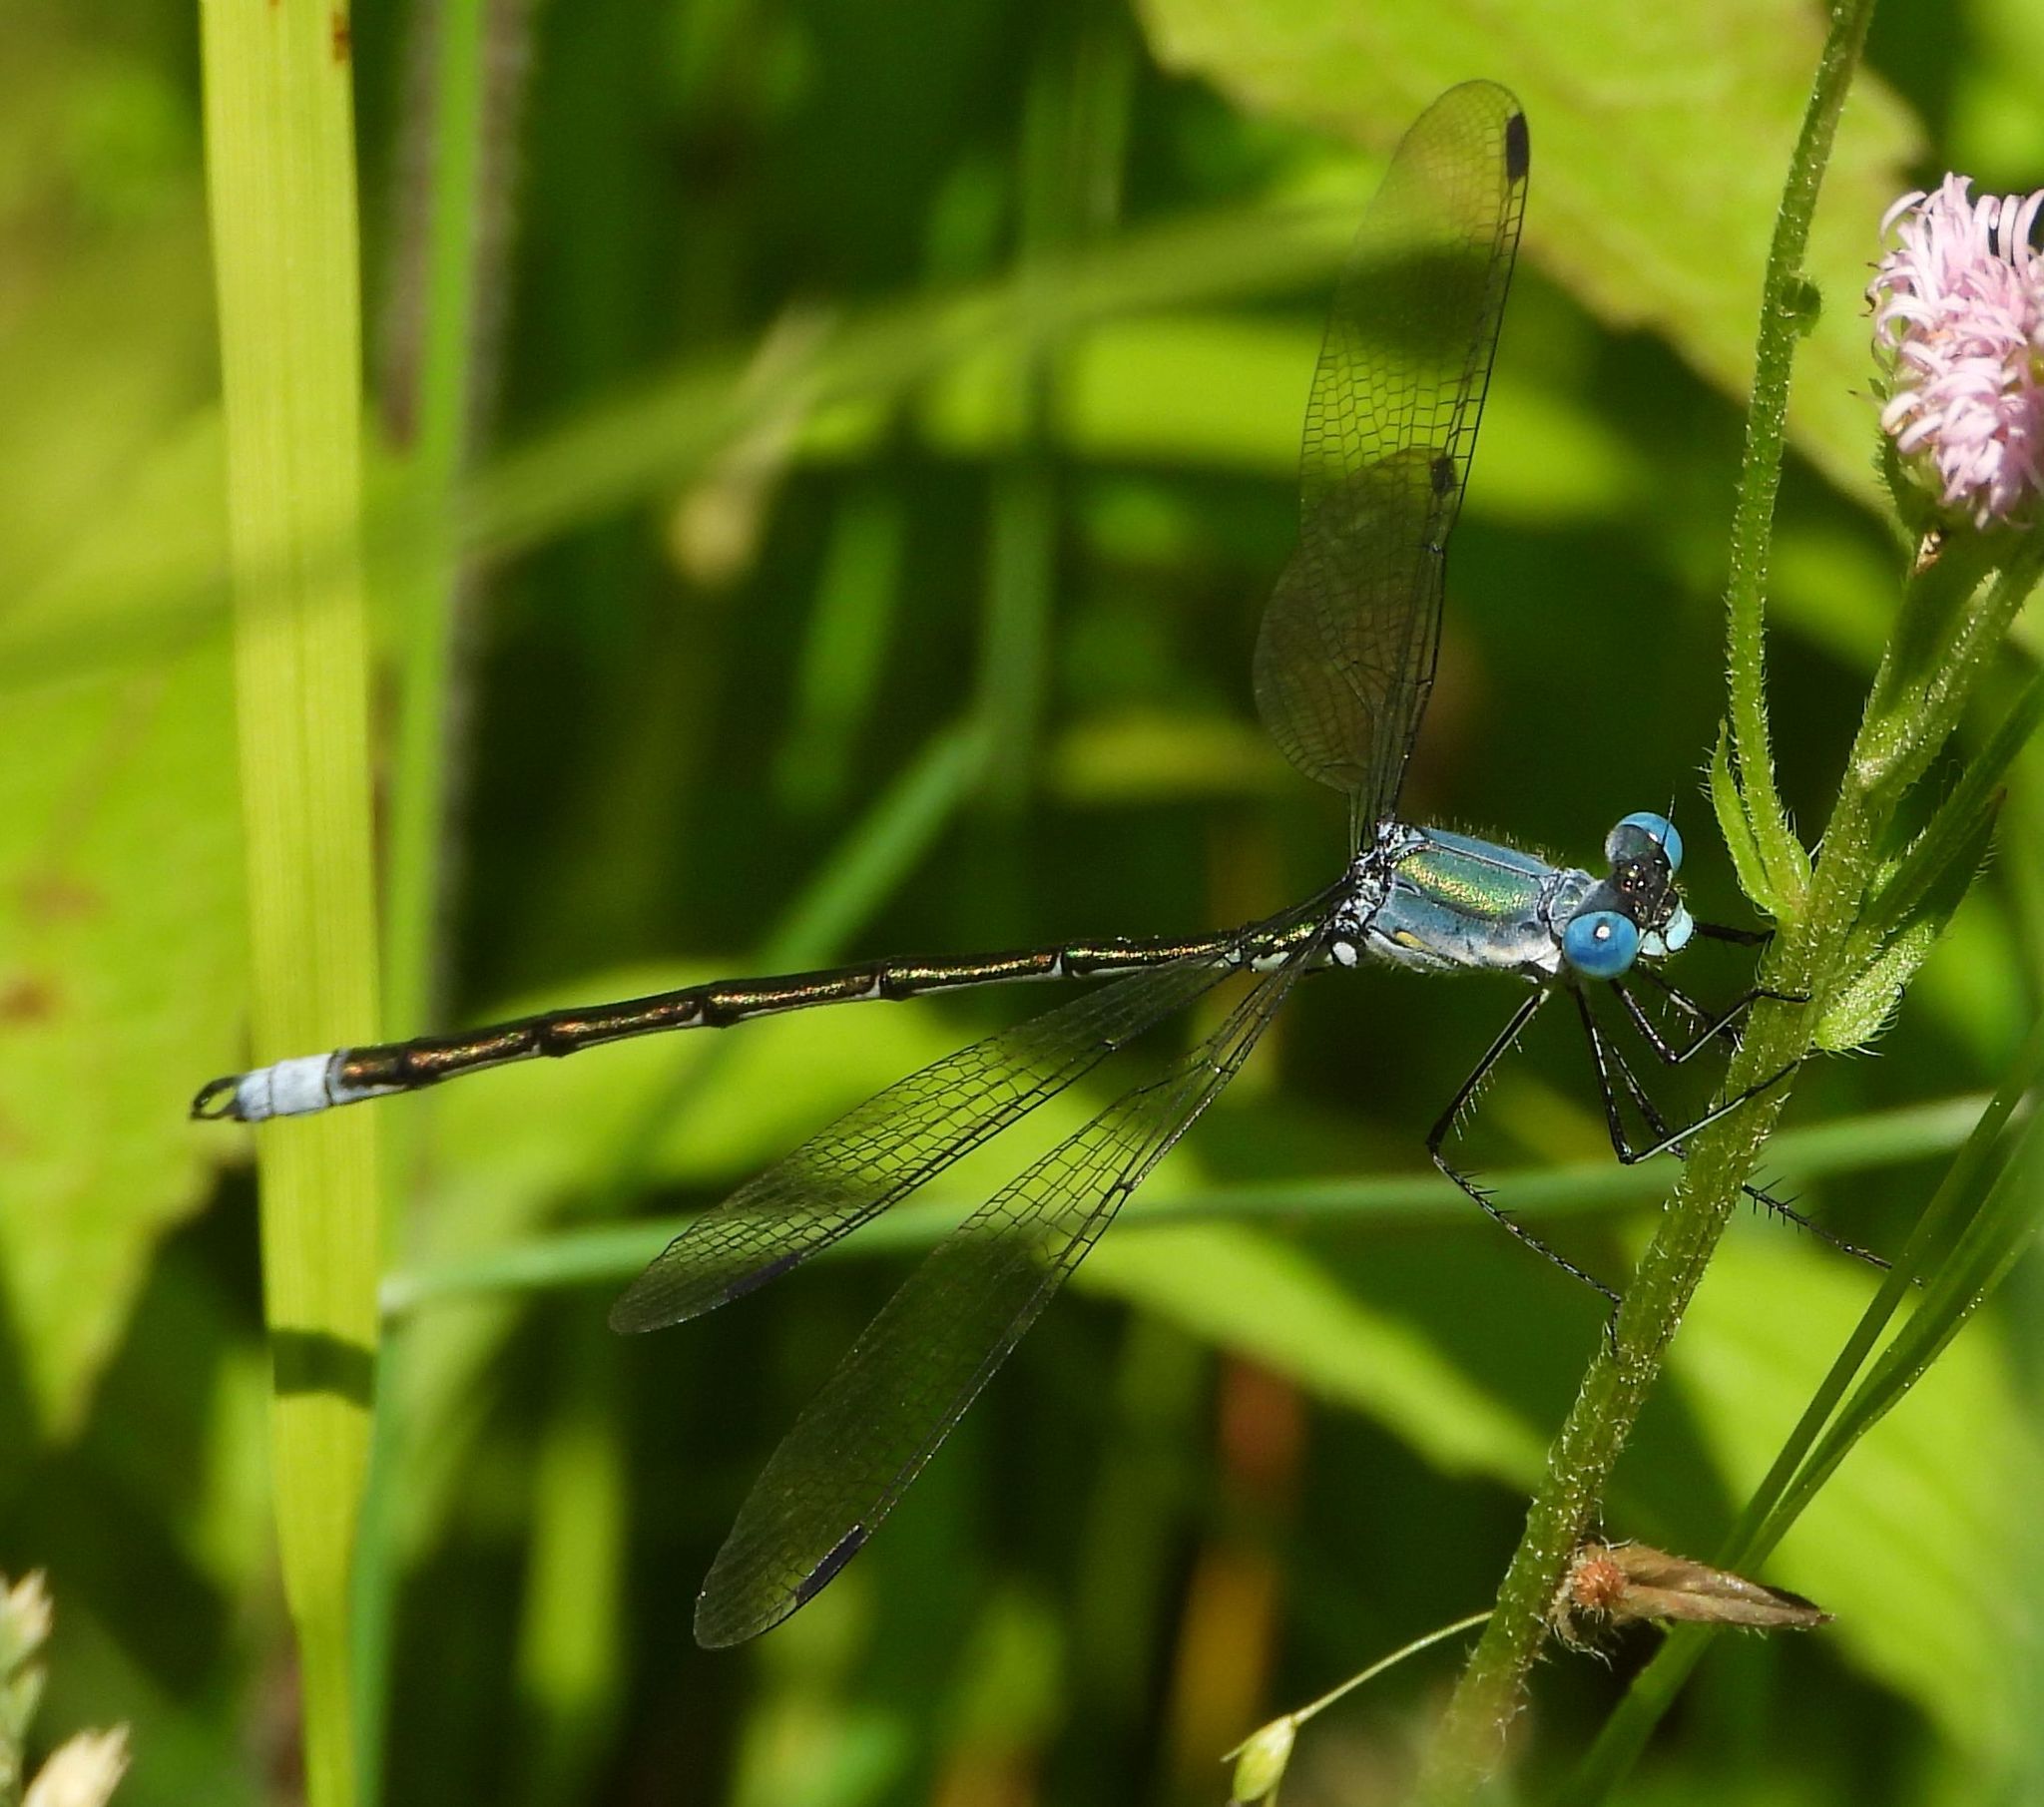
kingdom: Animalia
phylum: Arthropoda
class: Insecta
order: Odonata
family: Lestidae
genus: Lestes
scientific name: Lestes eurinus
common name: Amber-winged spreadwing
